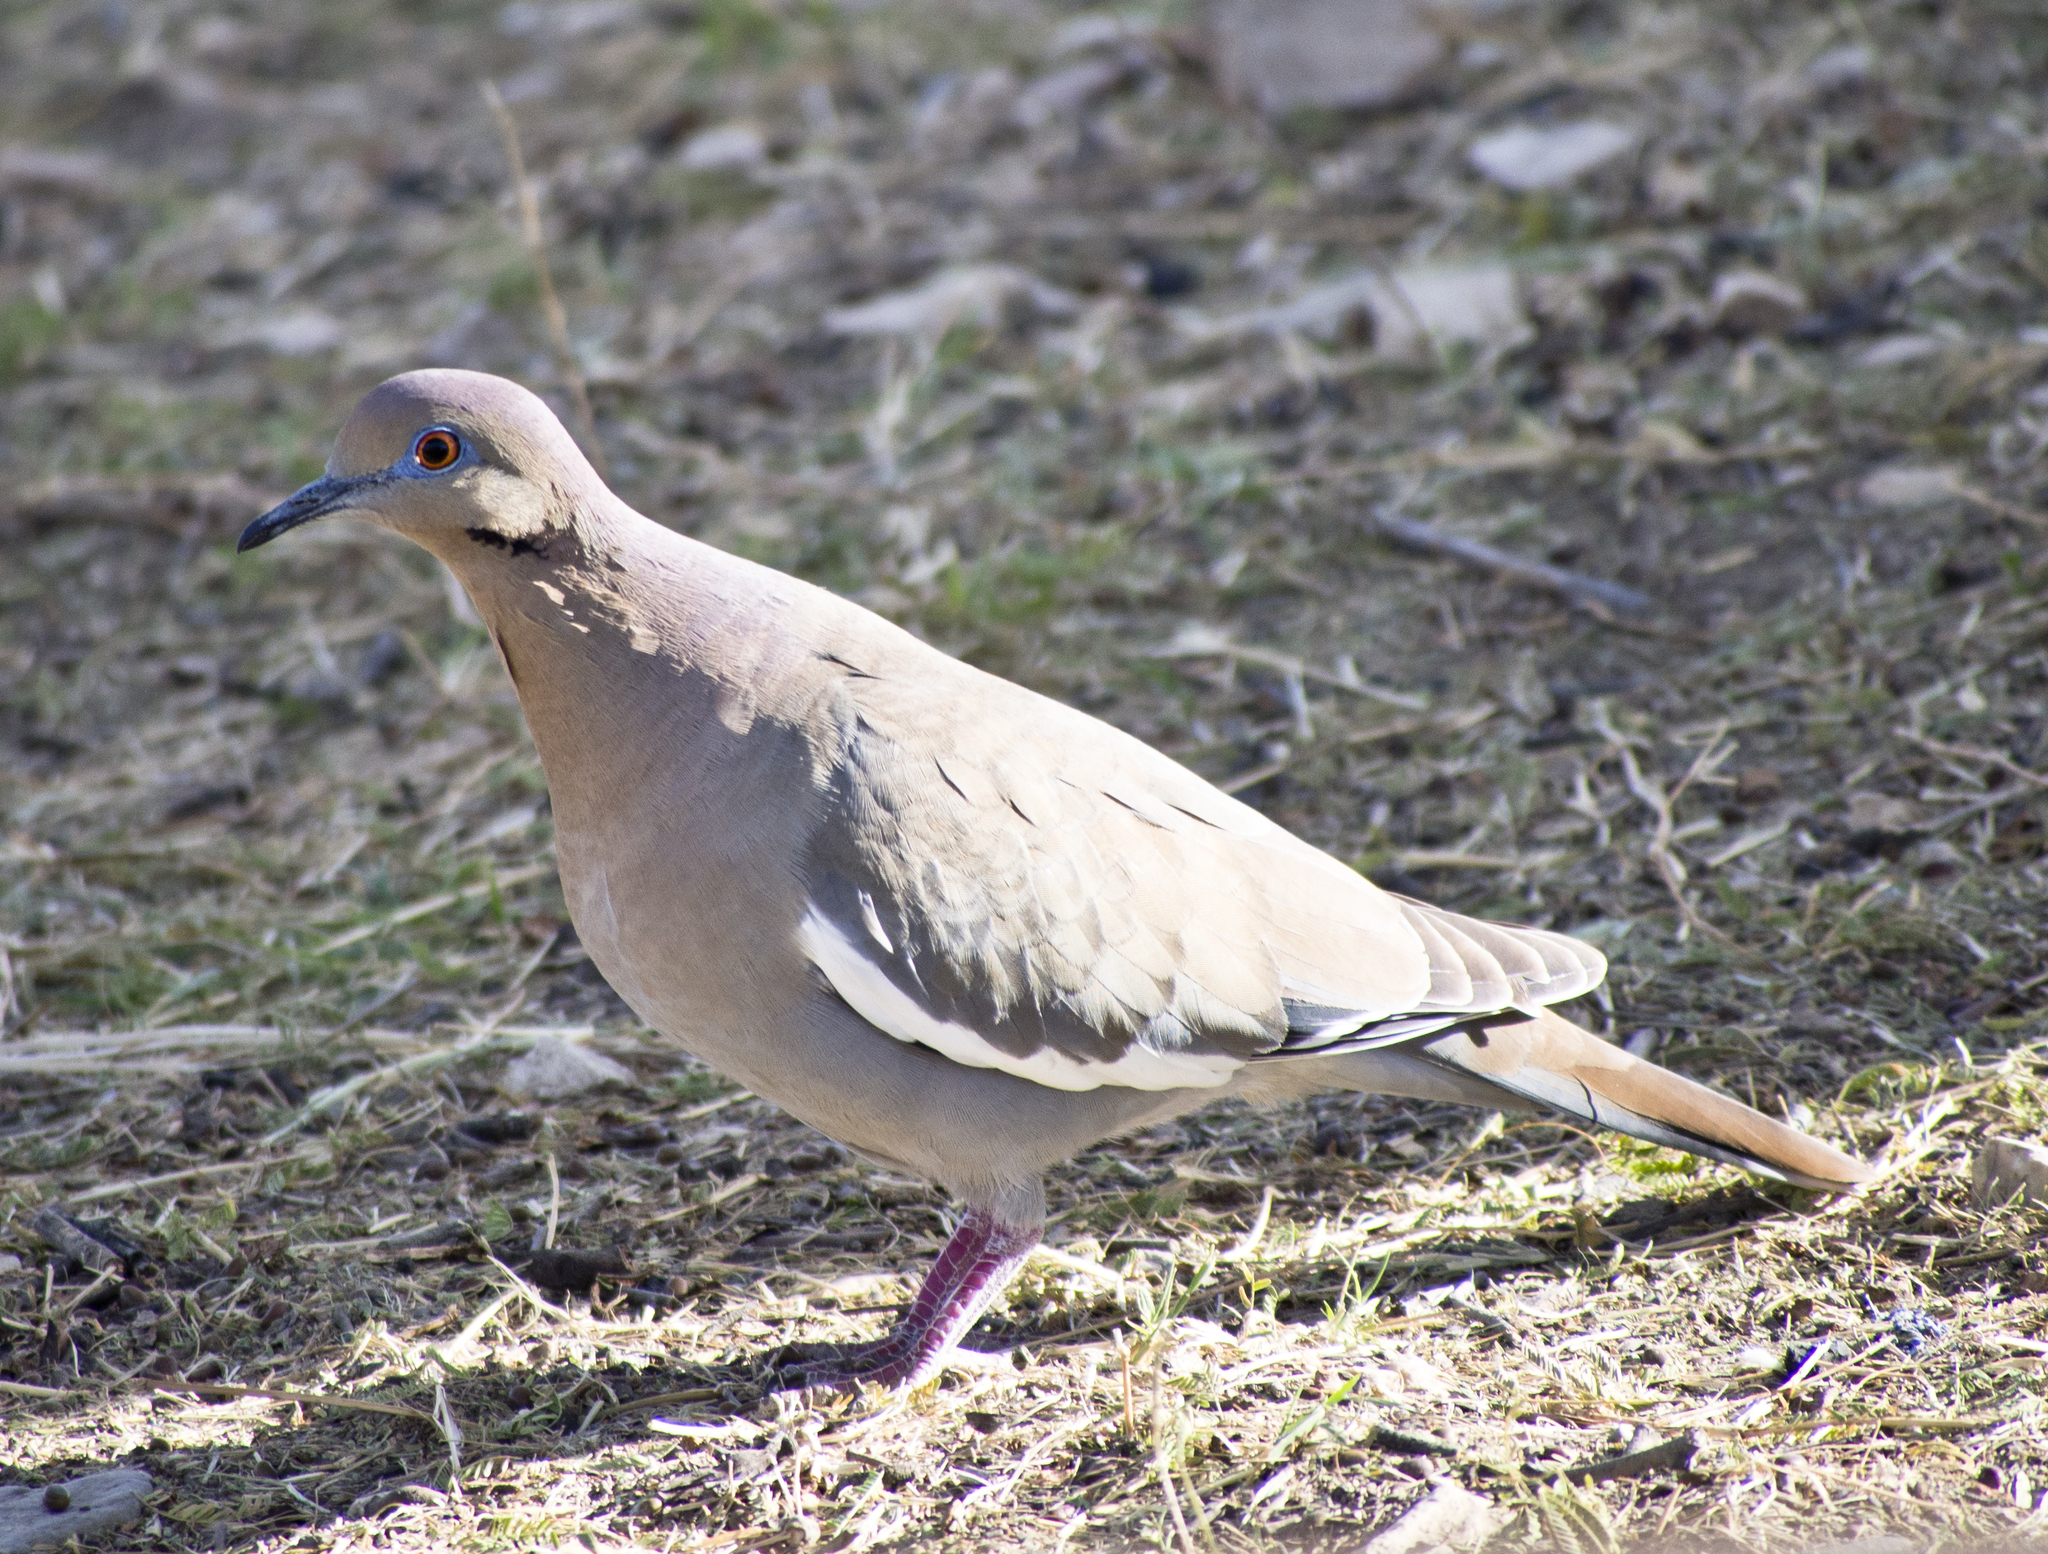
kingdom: Animalia
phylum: Chordata
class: Aves
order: Columbiformes
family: Columbidae
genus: Zenaida
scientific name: Zenaida asiatica
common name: White-winged dove
